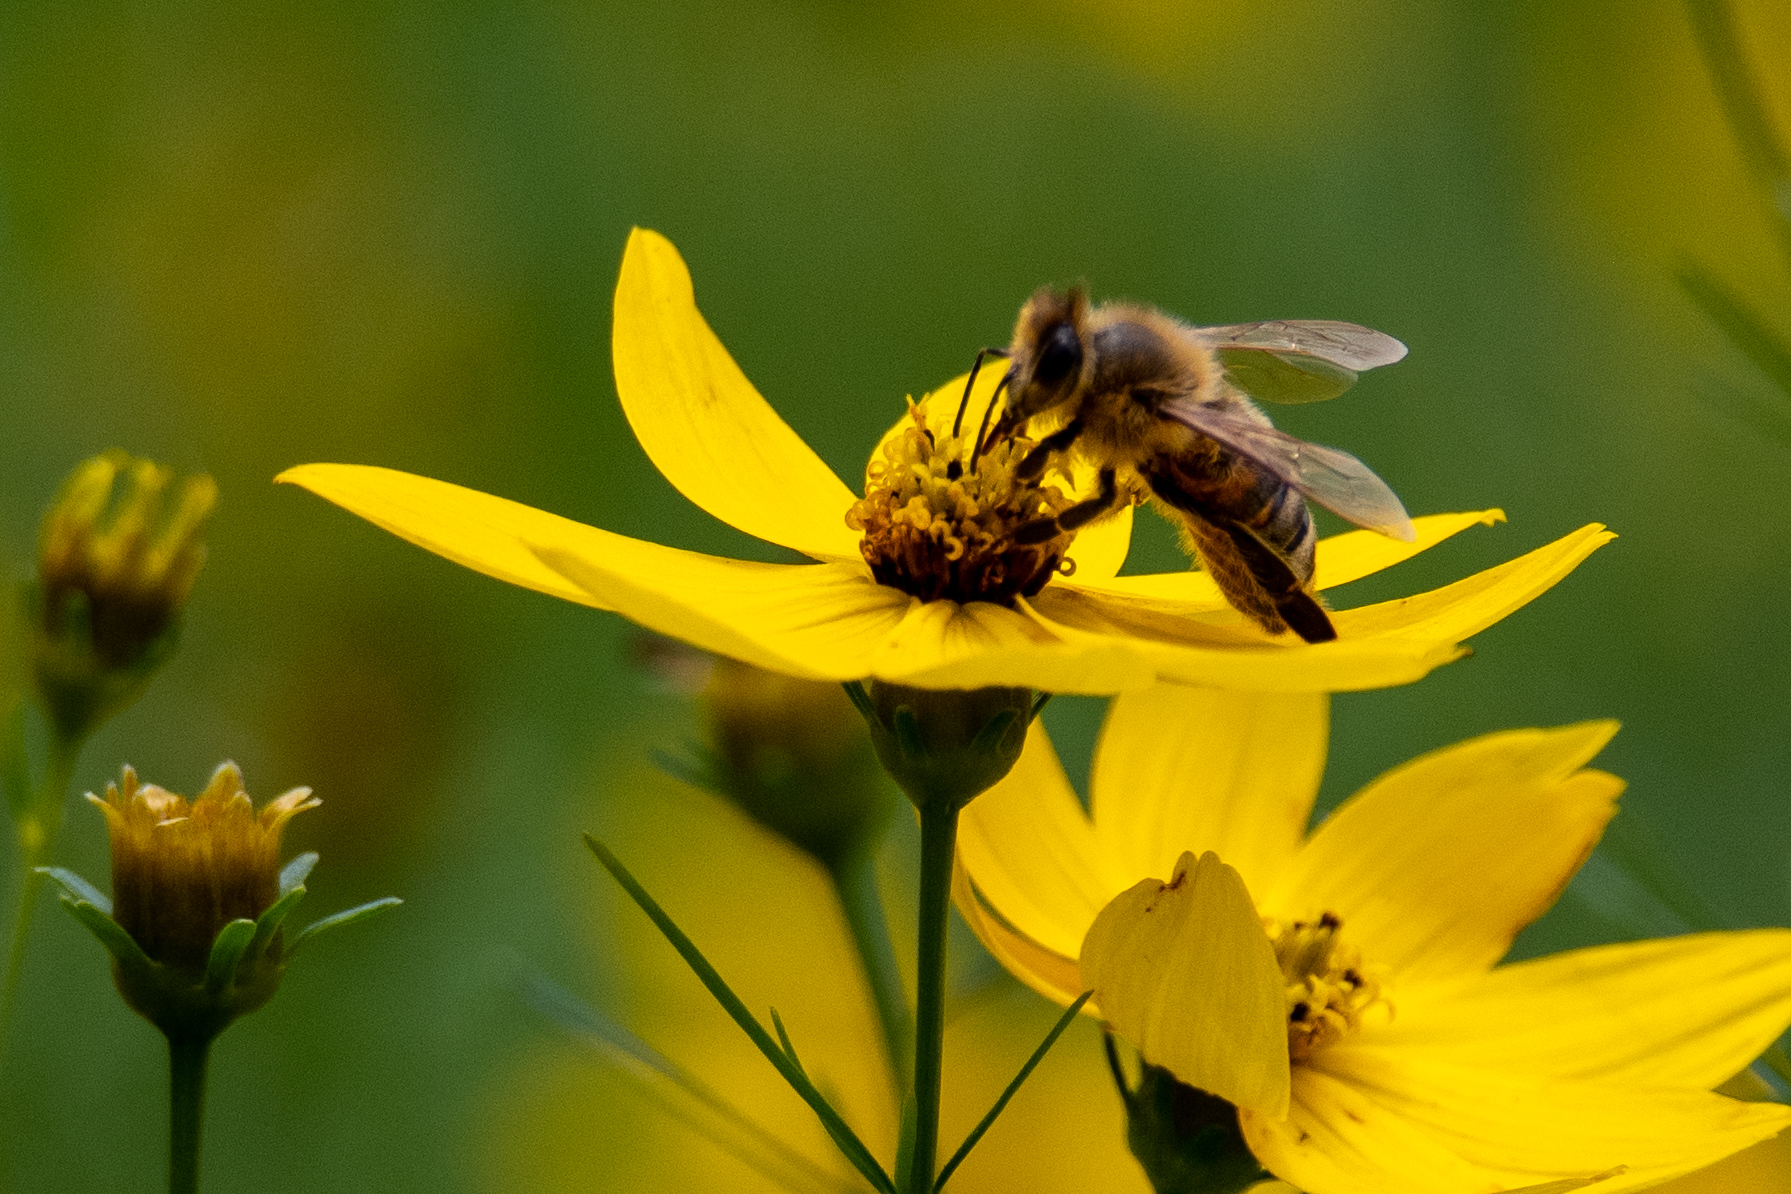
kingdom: Animalia
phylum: Arthropoda
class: Insecta
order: Hymenoptera
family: Apidae
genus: Apis
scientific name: Apis mellifera
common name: Honey bee
